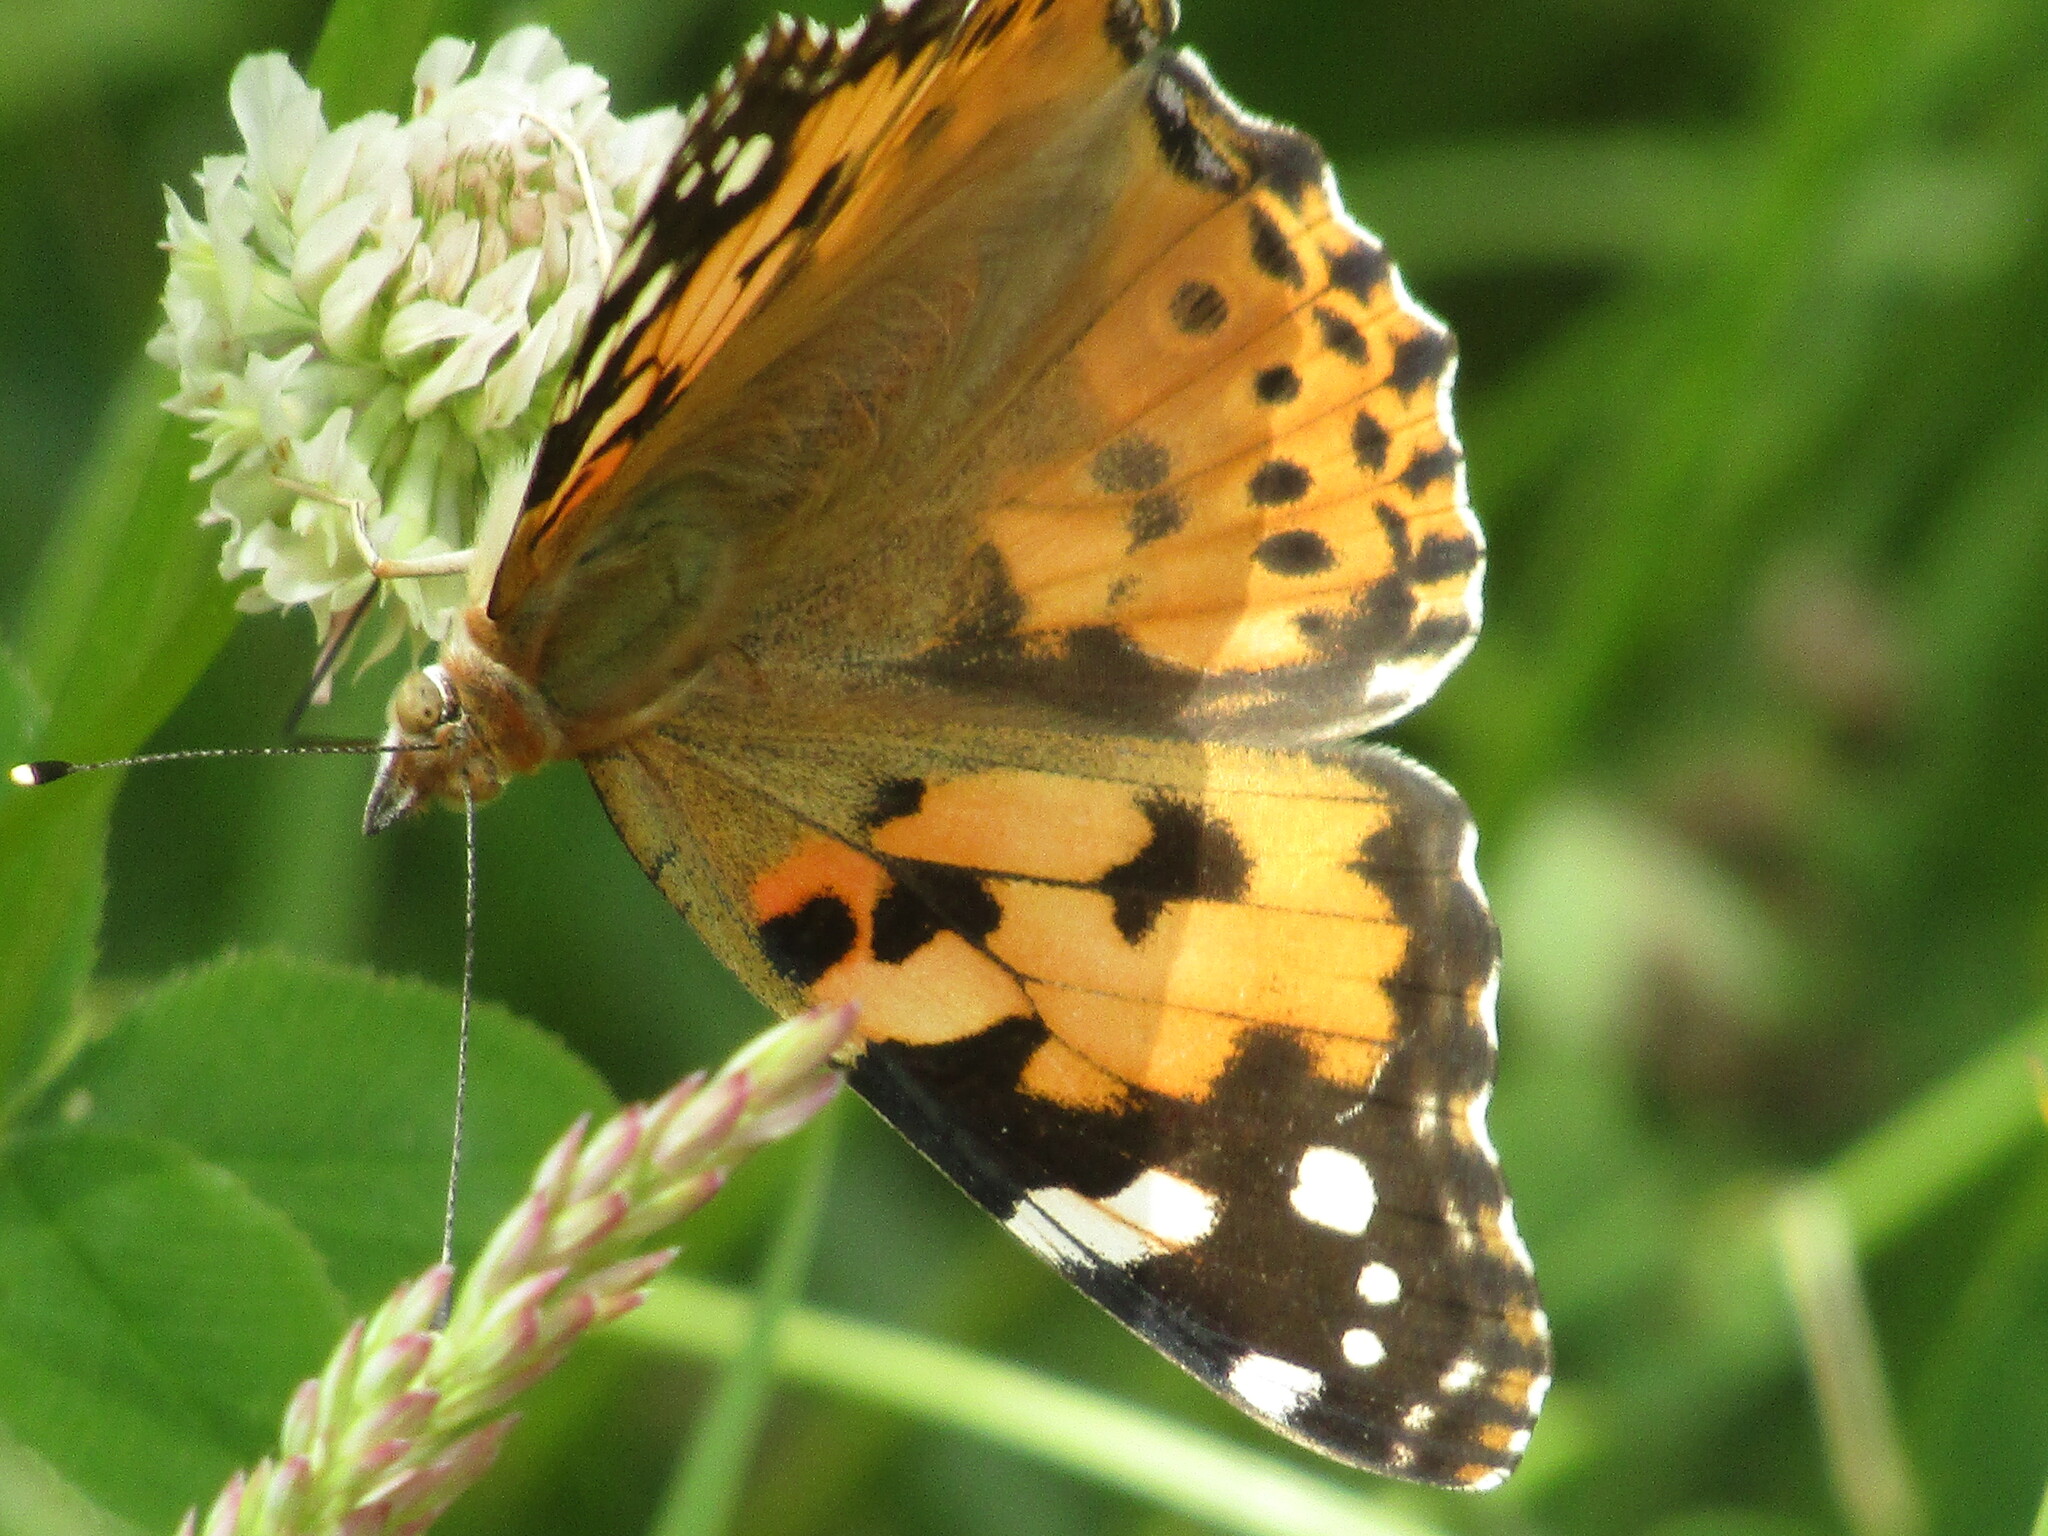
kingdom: Animalia
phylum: Arthropoda
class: Insecta
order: Lepidoptera
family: Nymphalidae
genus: Vanessa
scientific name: Vanessa cardui
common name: Painted lady
